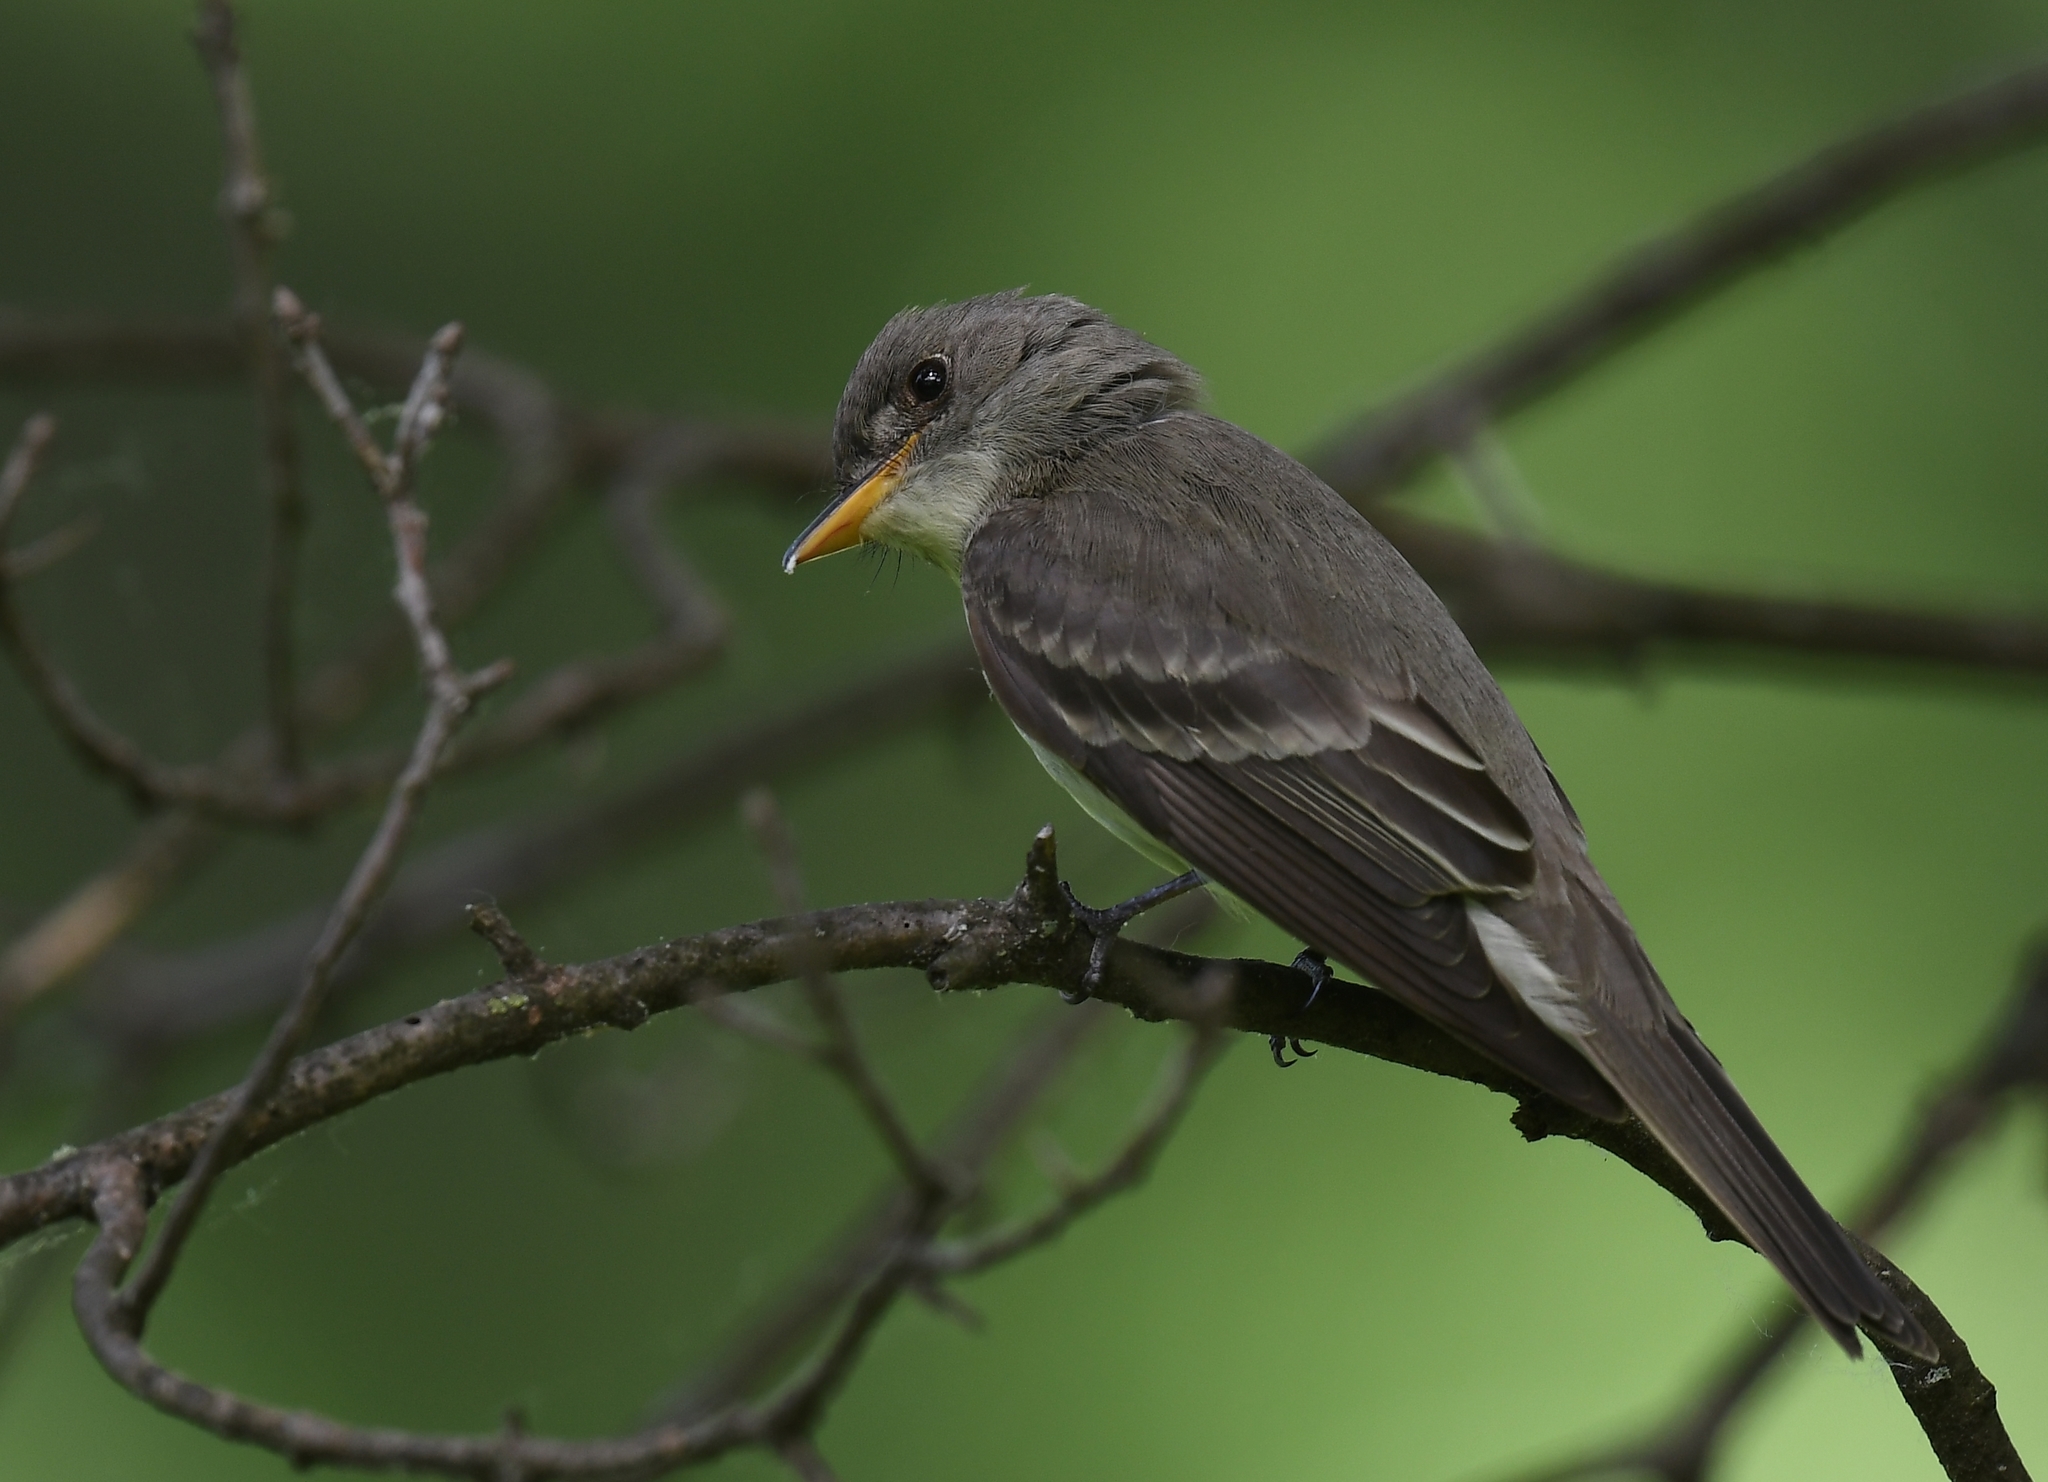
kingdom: Animalia
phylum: Chordata
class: Aves
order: Passeriformes
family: Tyrannidae
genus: Contopus
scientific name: Contopus virens
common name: Eastern wood-pewee
